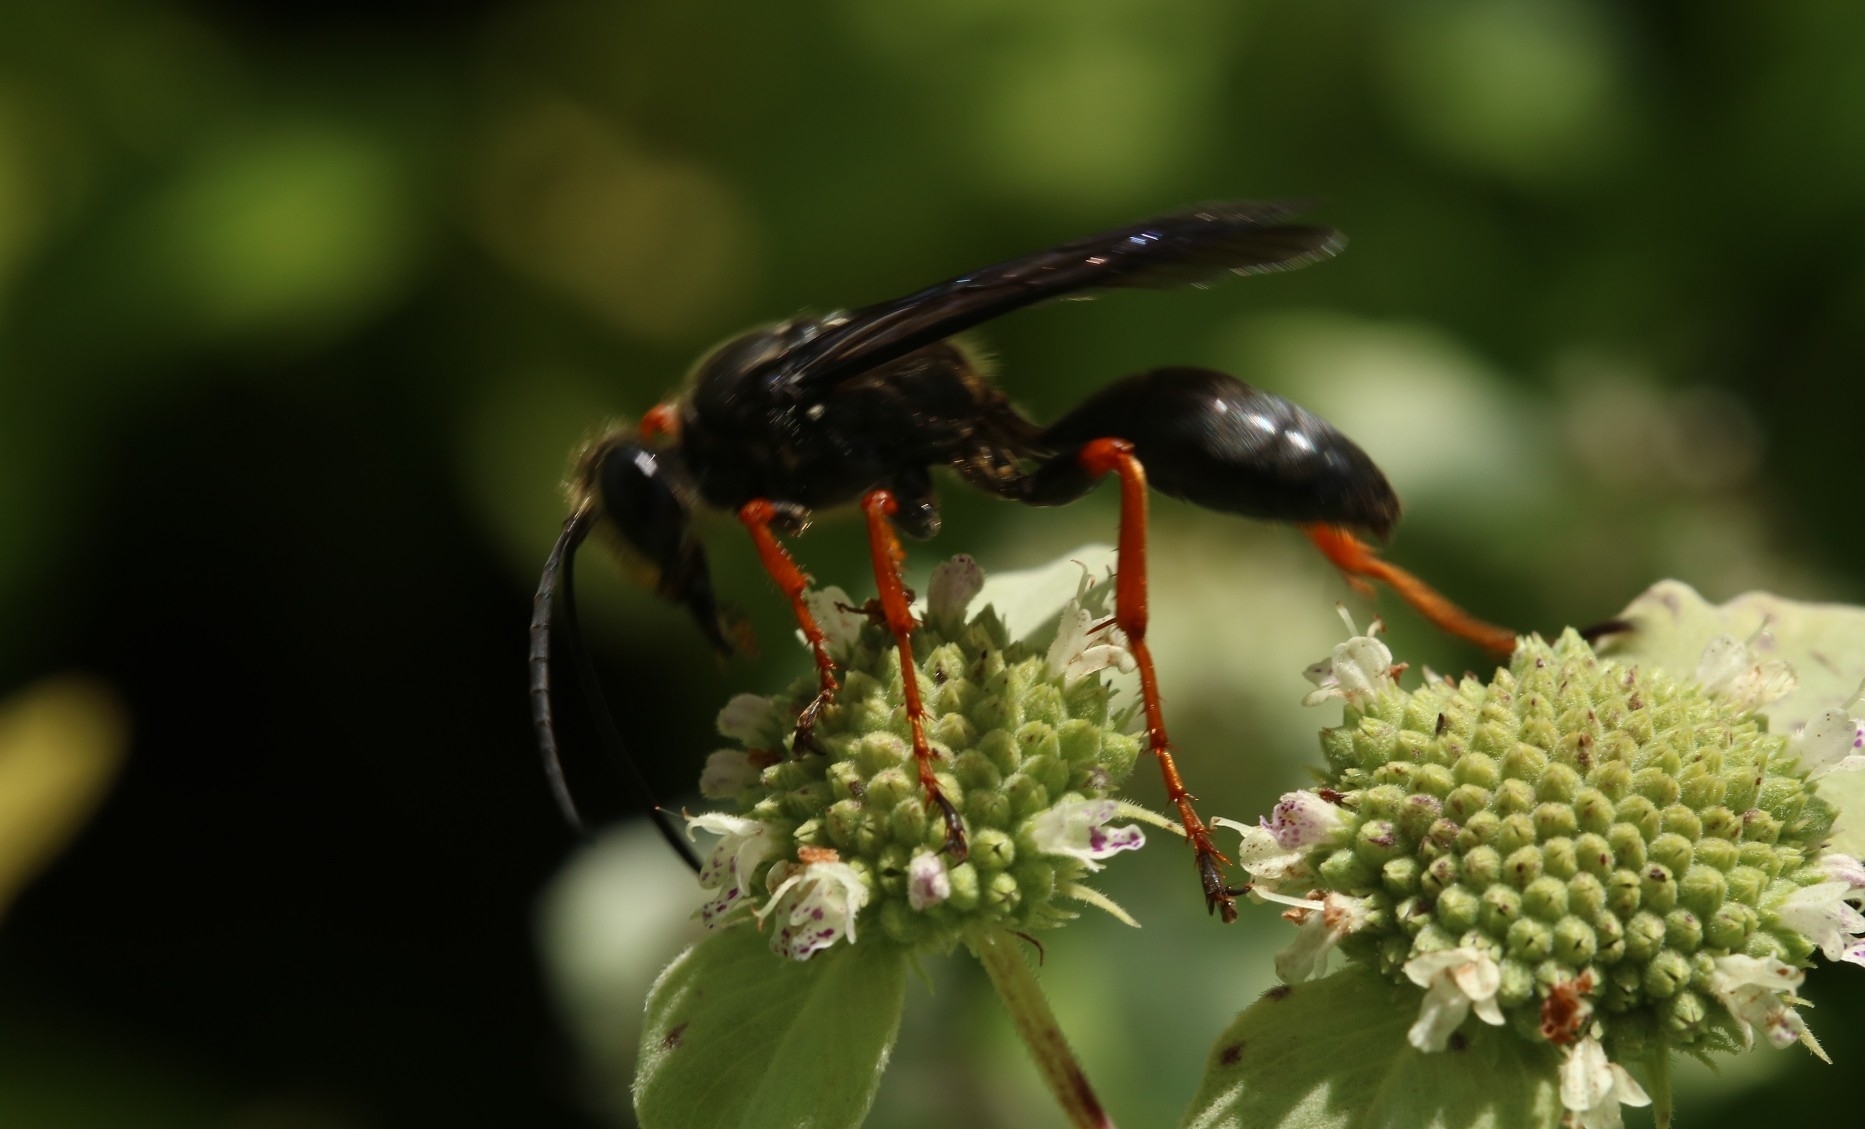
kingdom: Animalia
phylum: Arthropoda
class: Insecta
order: Hymenoptera
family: Sphecidae
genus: Sphex
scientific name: Sphex nudus
